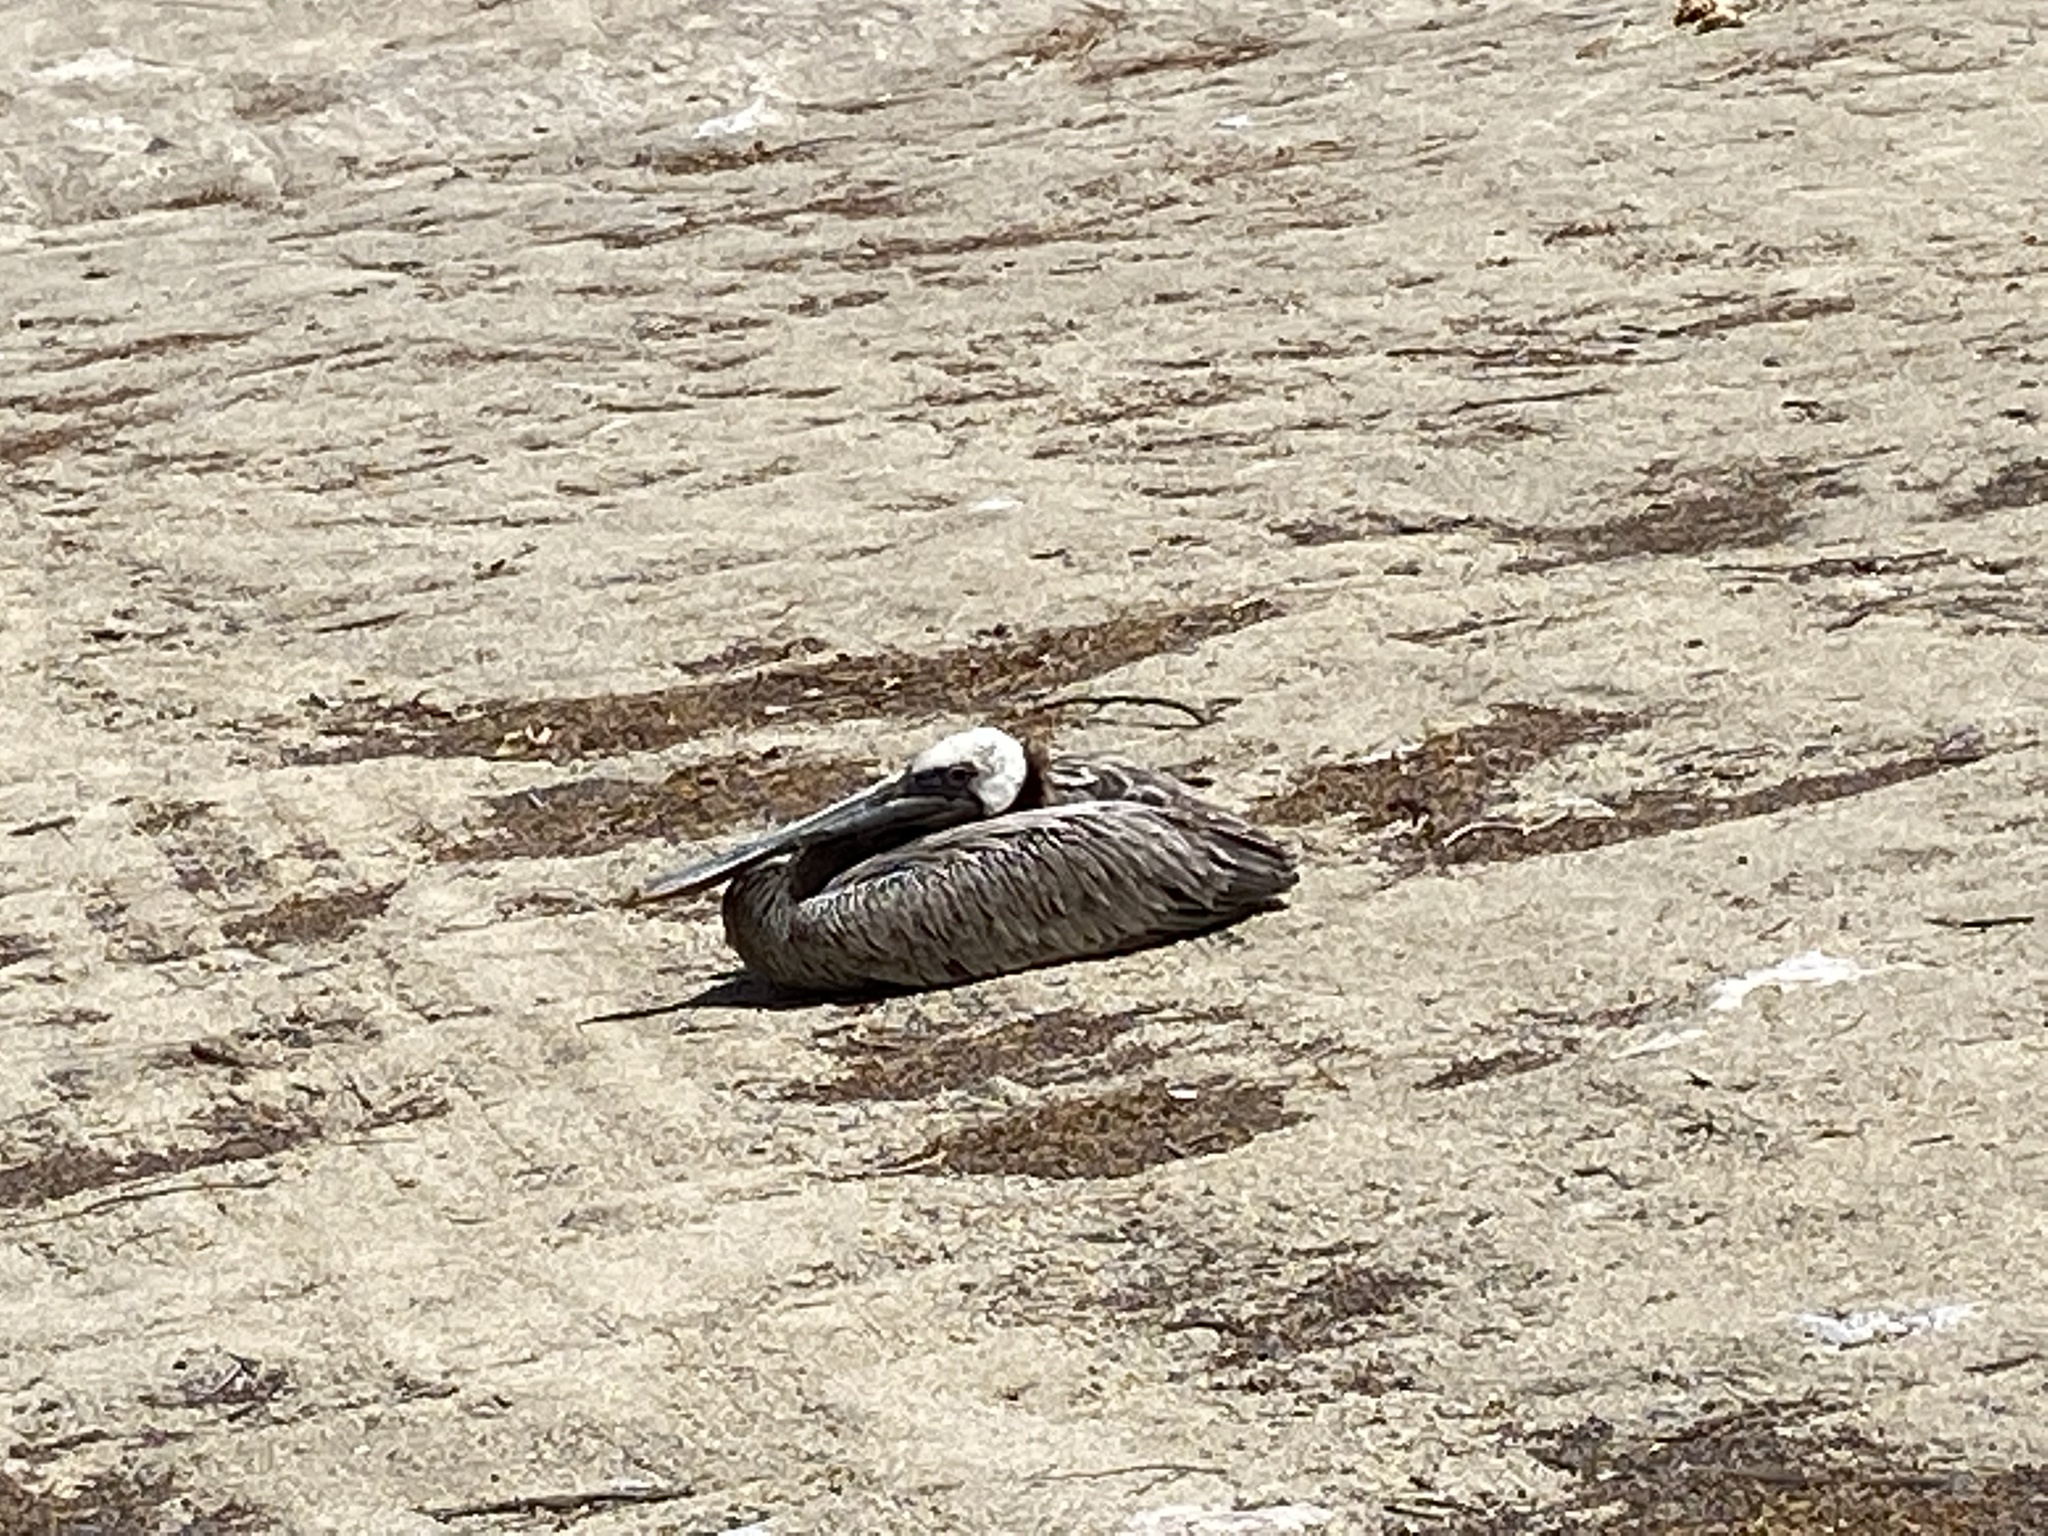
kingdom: Animalia
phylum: Chordata
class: Aves
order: Pelecaniformes
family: Pelecanidae
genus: Pelecanus
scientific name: Pelecanus occidentalis
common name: Brown pelican
